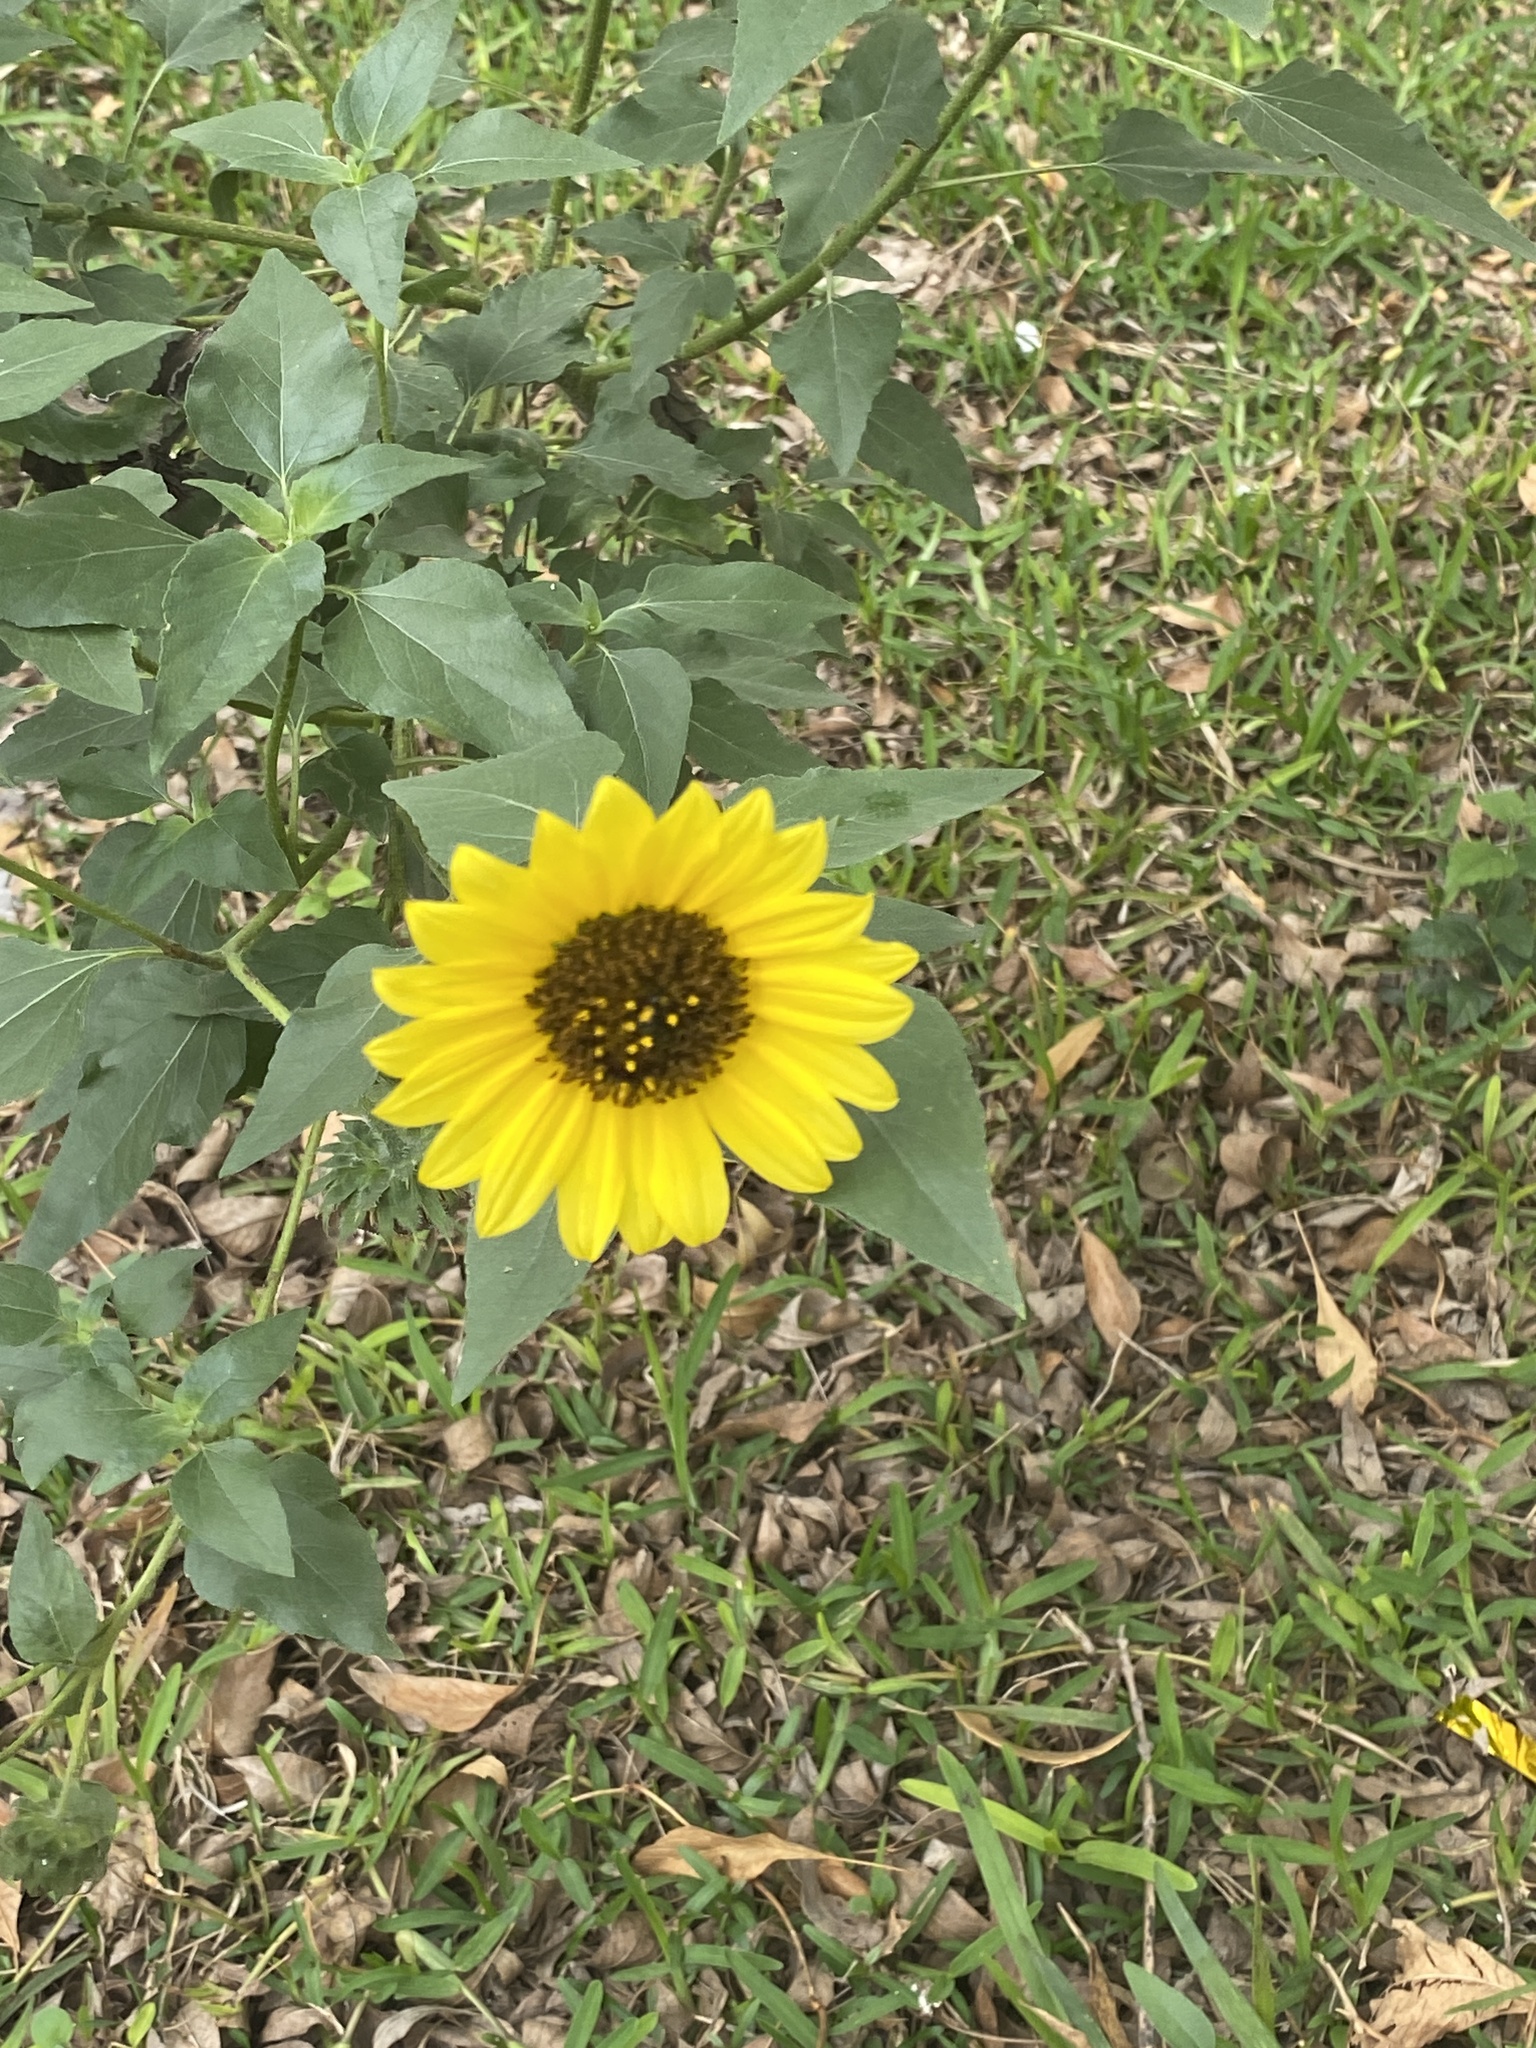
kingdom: Plantae
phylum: Tracheophyta
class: Magnoliopsida
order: Asterales
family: Asteraceae
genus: Helianthus
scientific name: Helianthus annuus
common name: Sunflower
